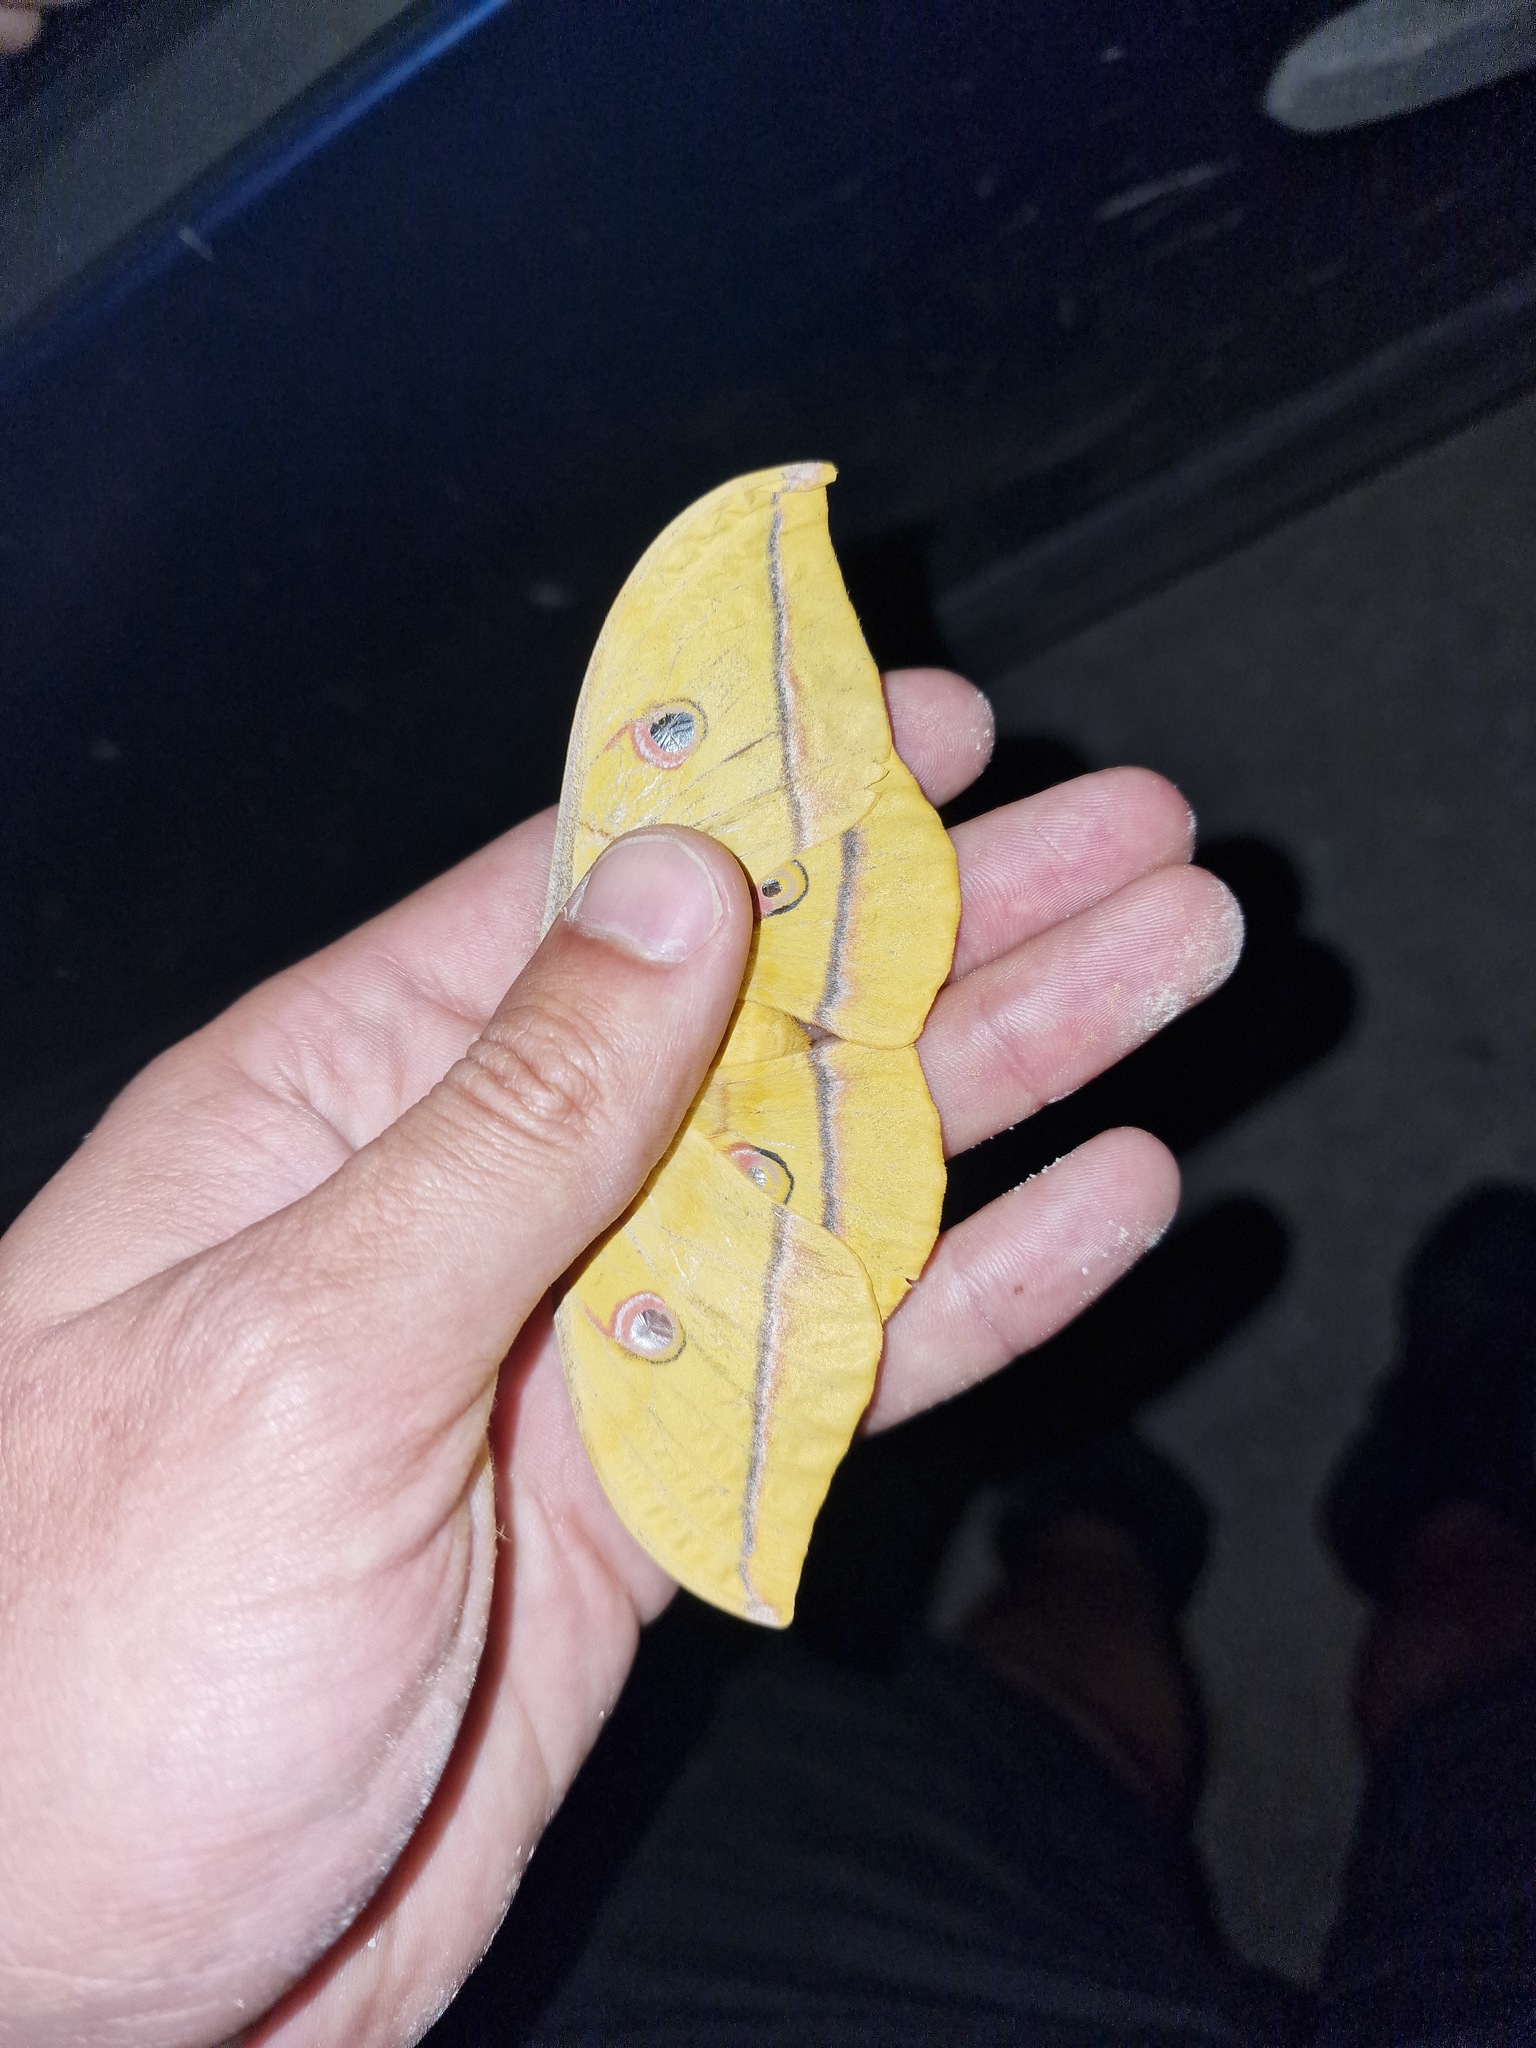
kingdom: Animalia
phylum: Arthropoda
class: Insecta
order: Lepidoptera
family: Saturniidae
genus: Antheraea
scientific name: Antheraea yamamai
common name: Japanese oak silk moth
